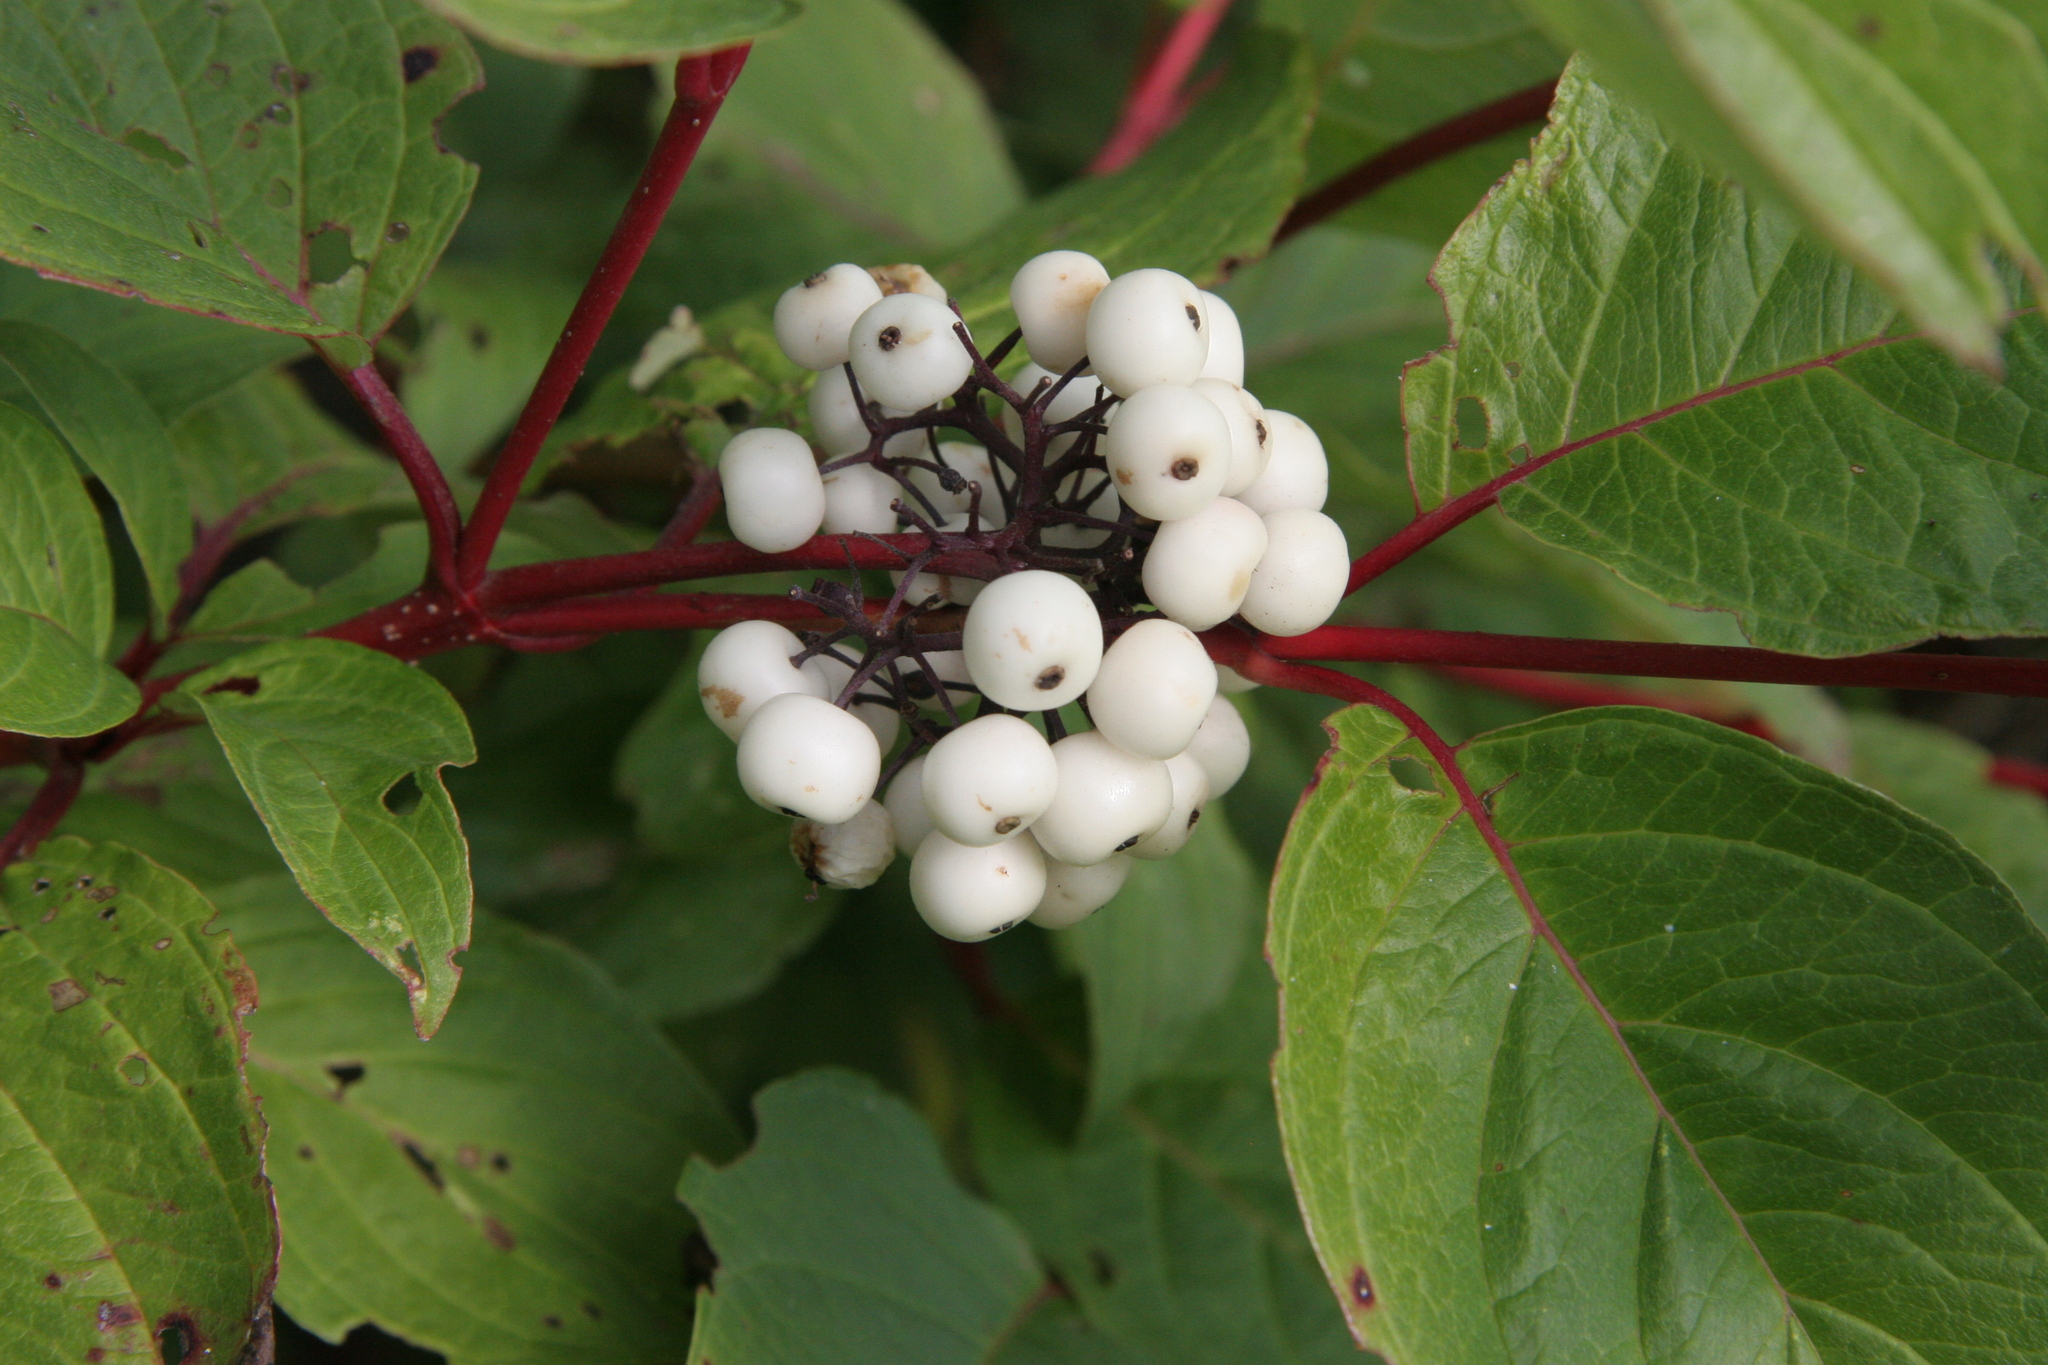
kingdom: Plantae
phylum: Tracheophyta
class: Magnoliopsida
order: Cornales
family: Cornaceae
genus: Cornus
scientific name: Cornus sericea
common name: Red-osier dogwood
